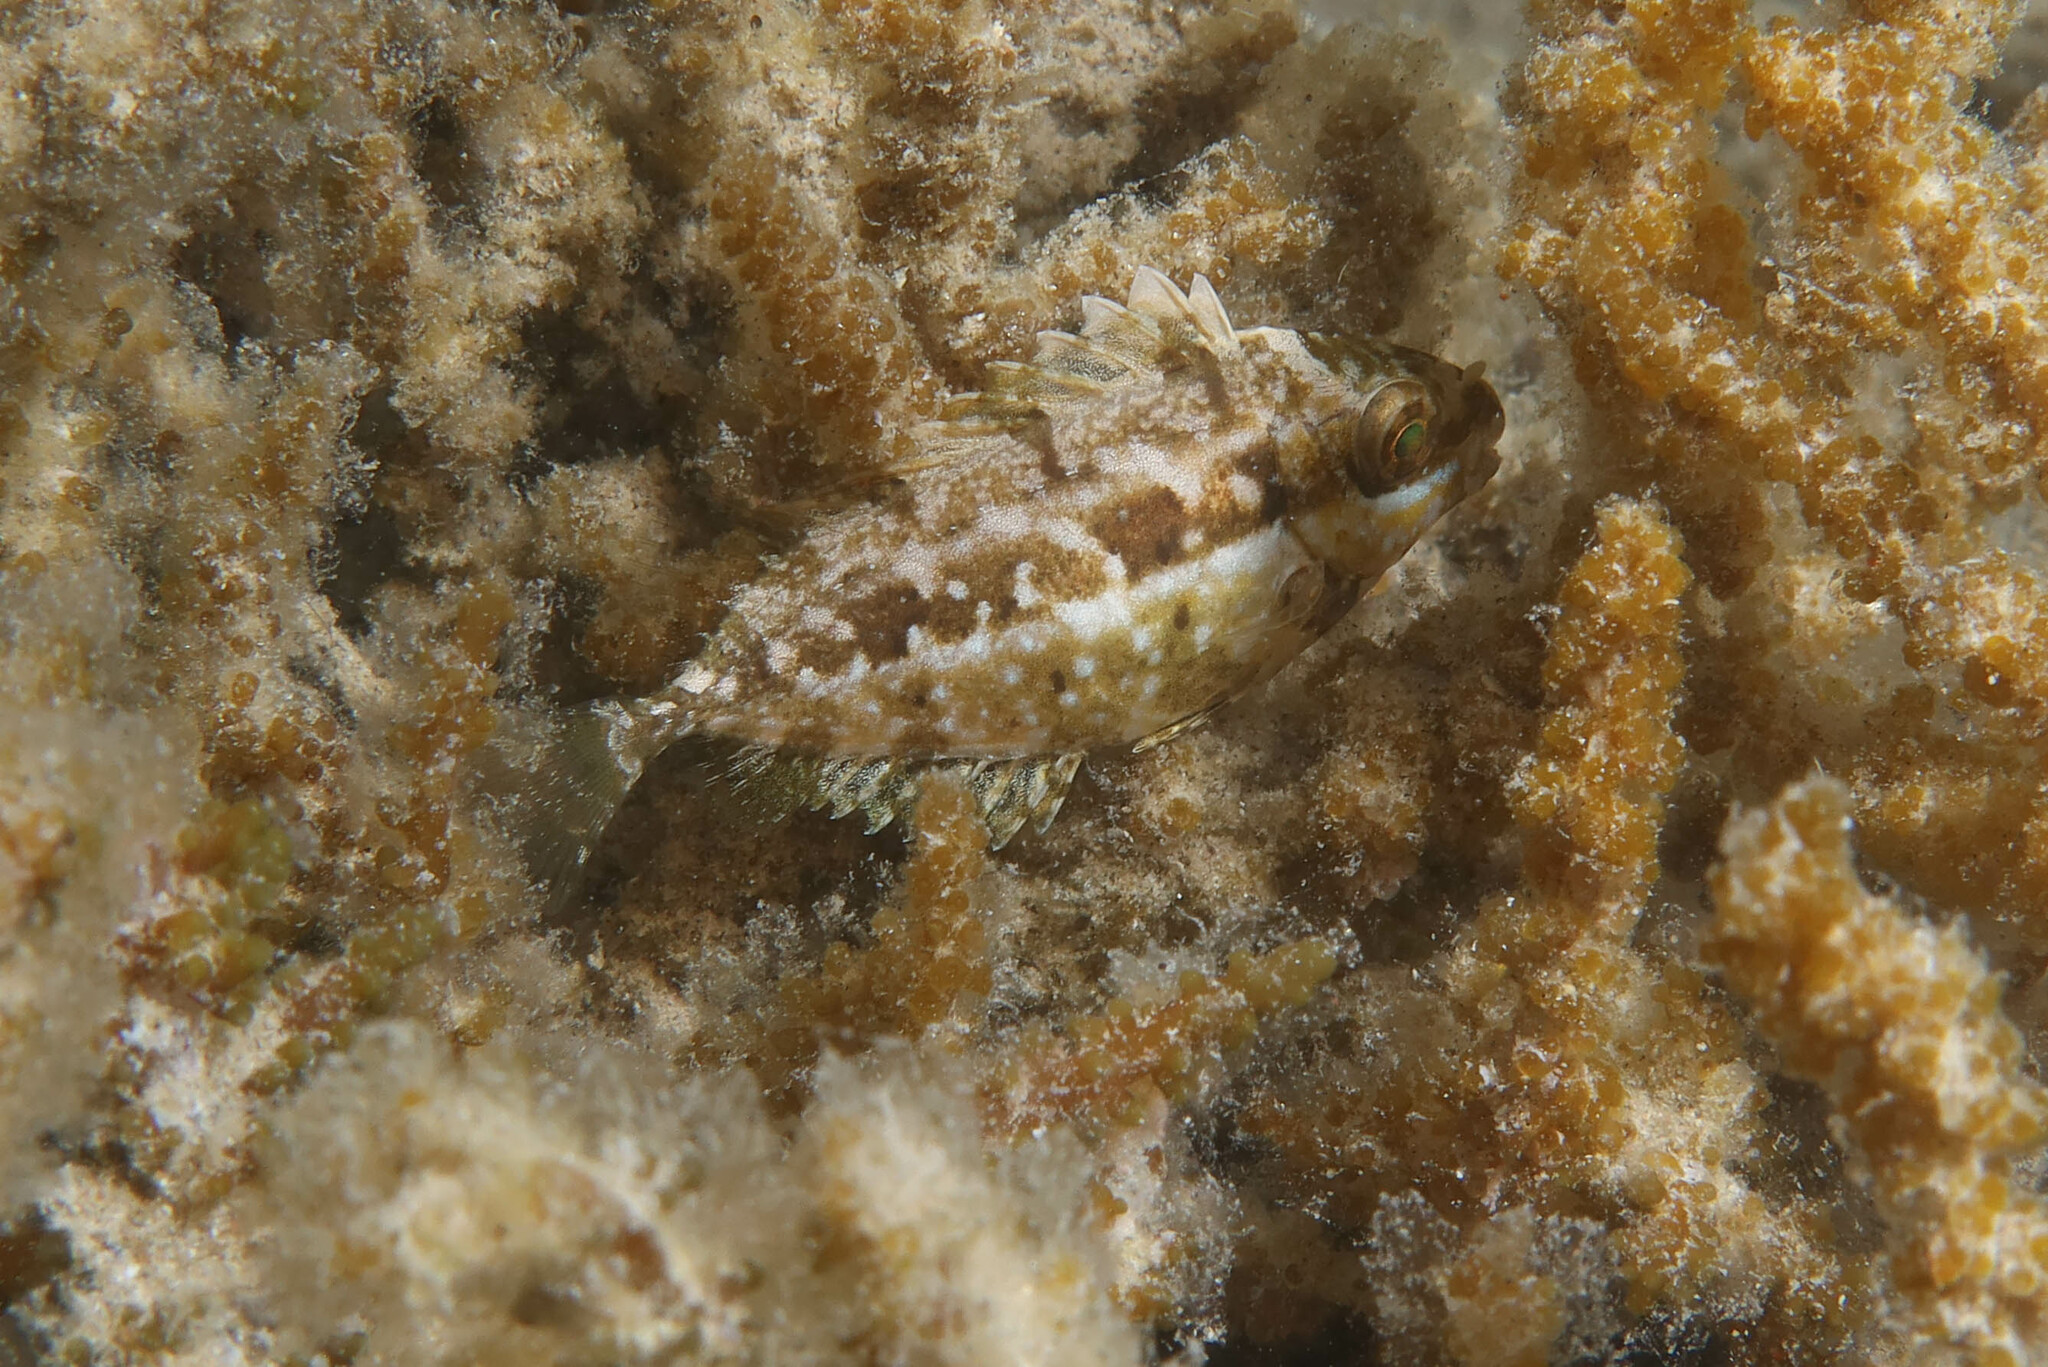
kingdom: Animalia
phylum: Chordata
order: Perciformes
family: Siganidae
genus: Siganus
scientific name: Siganus luridus
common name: Dusky spinefoot
